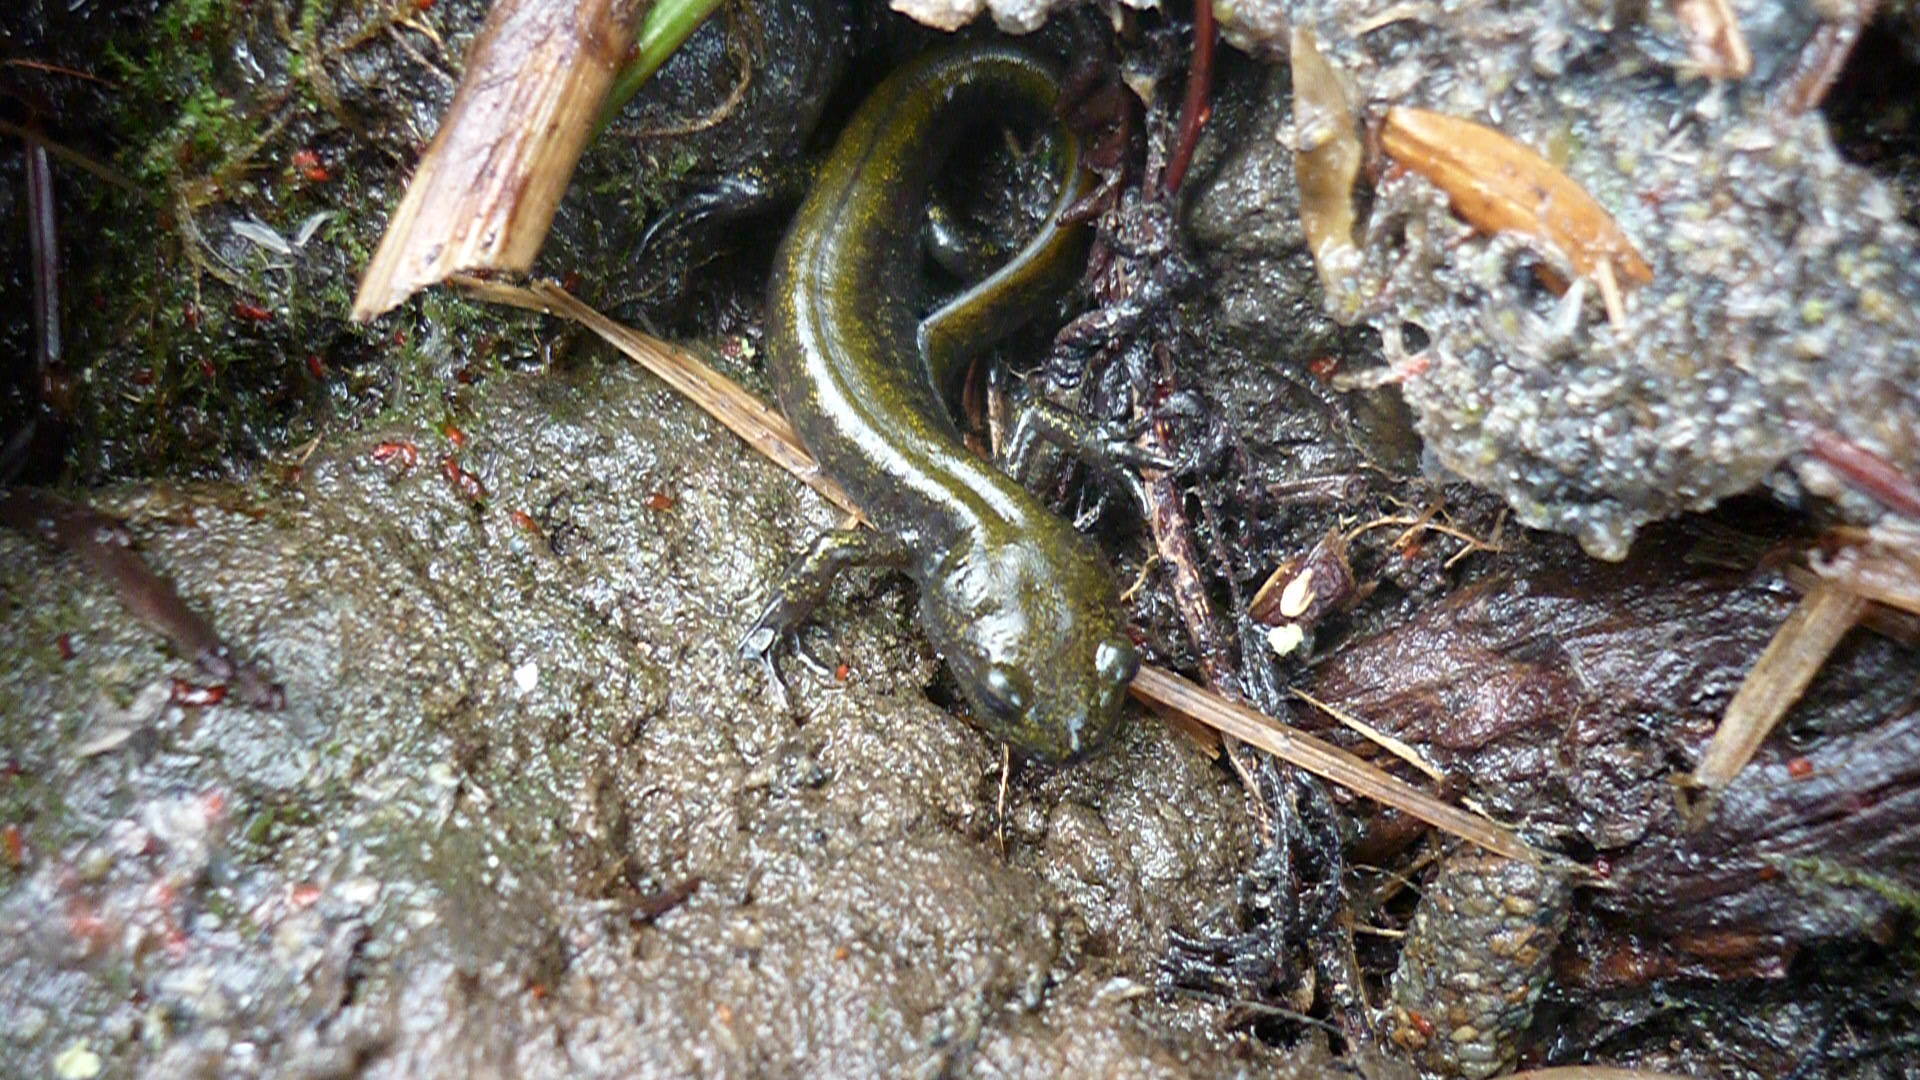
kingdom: Animalia
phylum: Chordata
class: Amphibia
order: Caudata
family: Ambystomatidae
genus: Ambystoma
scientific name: Ambystoma macrodactylum
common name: Long-toed salamander
